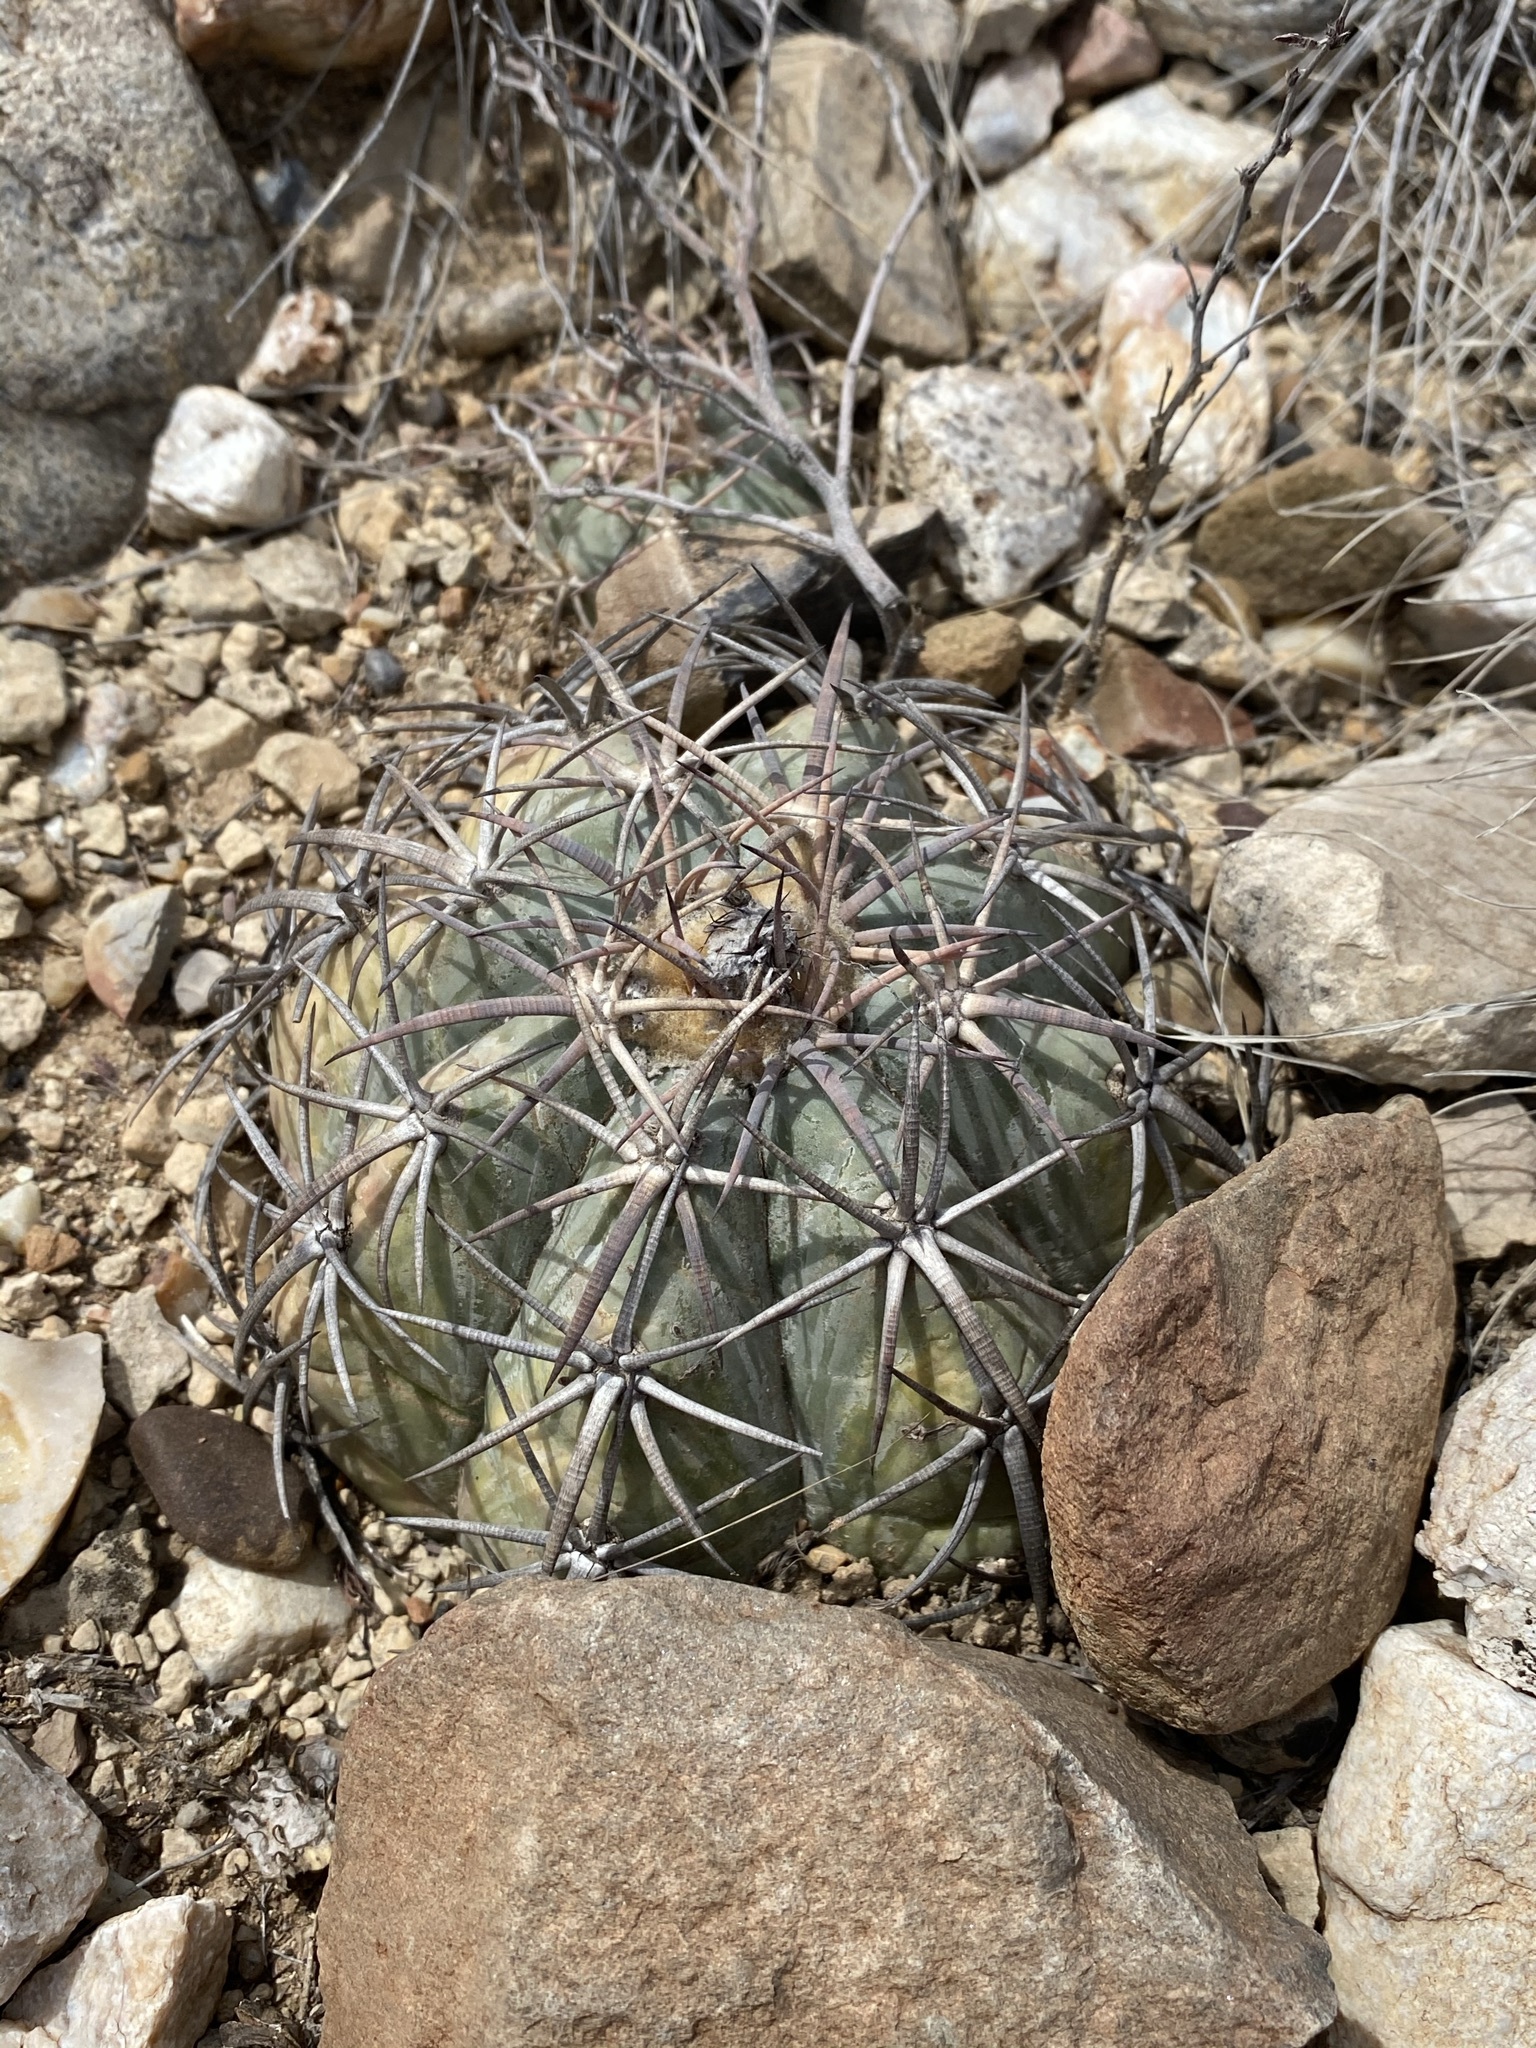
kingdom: Plantae
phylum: Tracheophyta
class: Magnoliopsida
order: Caryophyllales
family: Cactaceae
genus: Echinocactus
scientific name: Echinocactus horizonthalonius
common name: Devilshead
